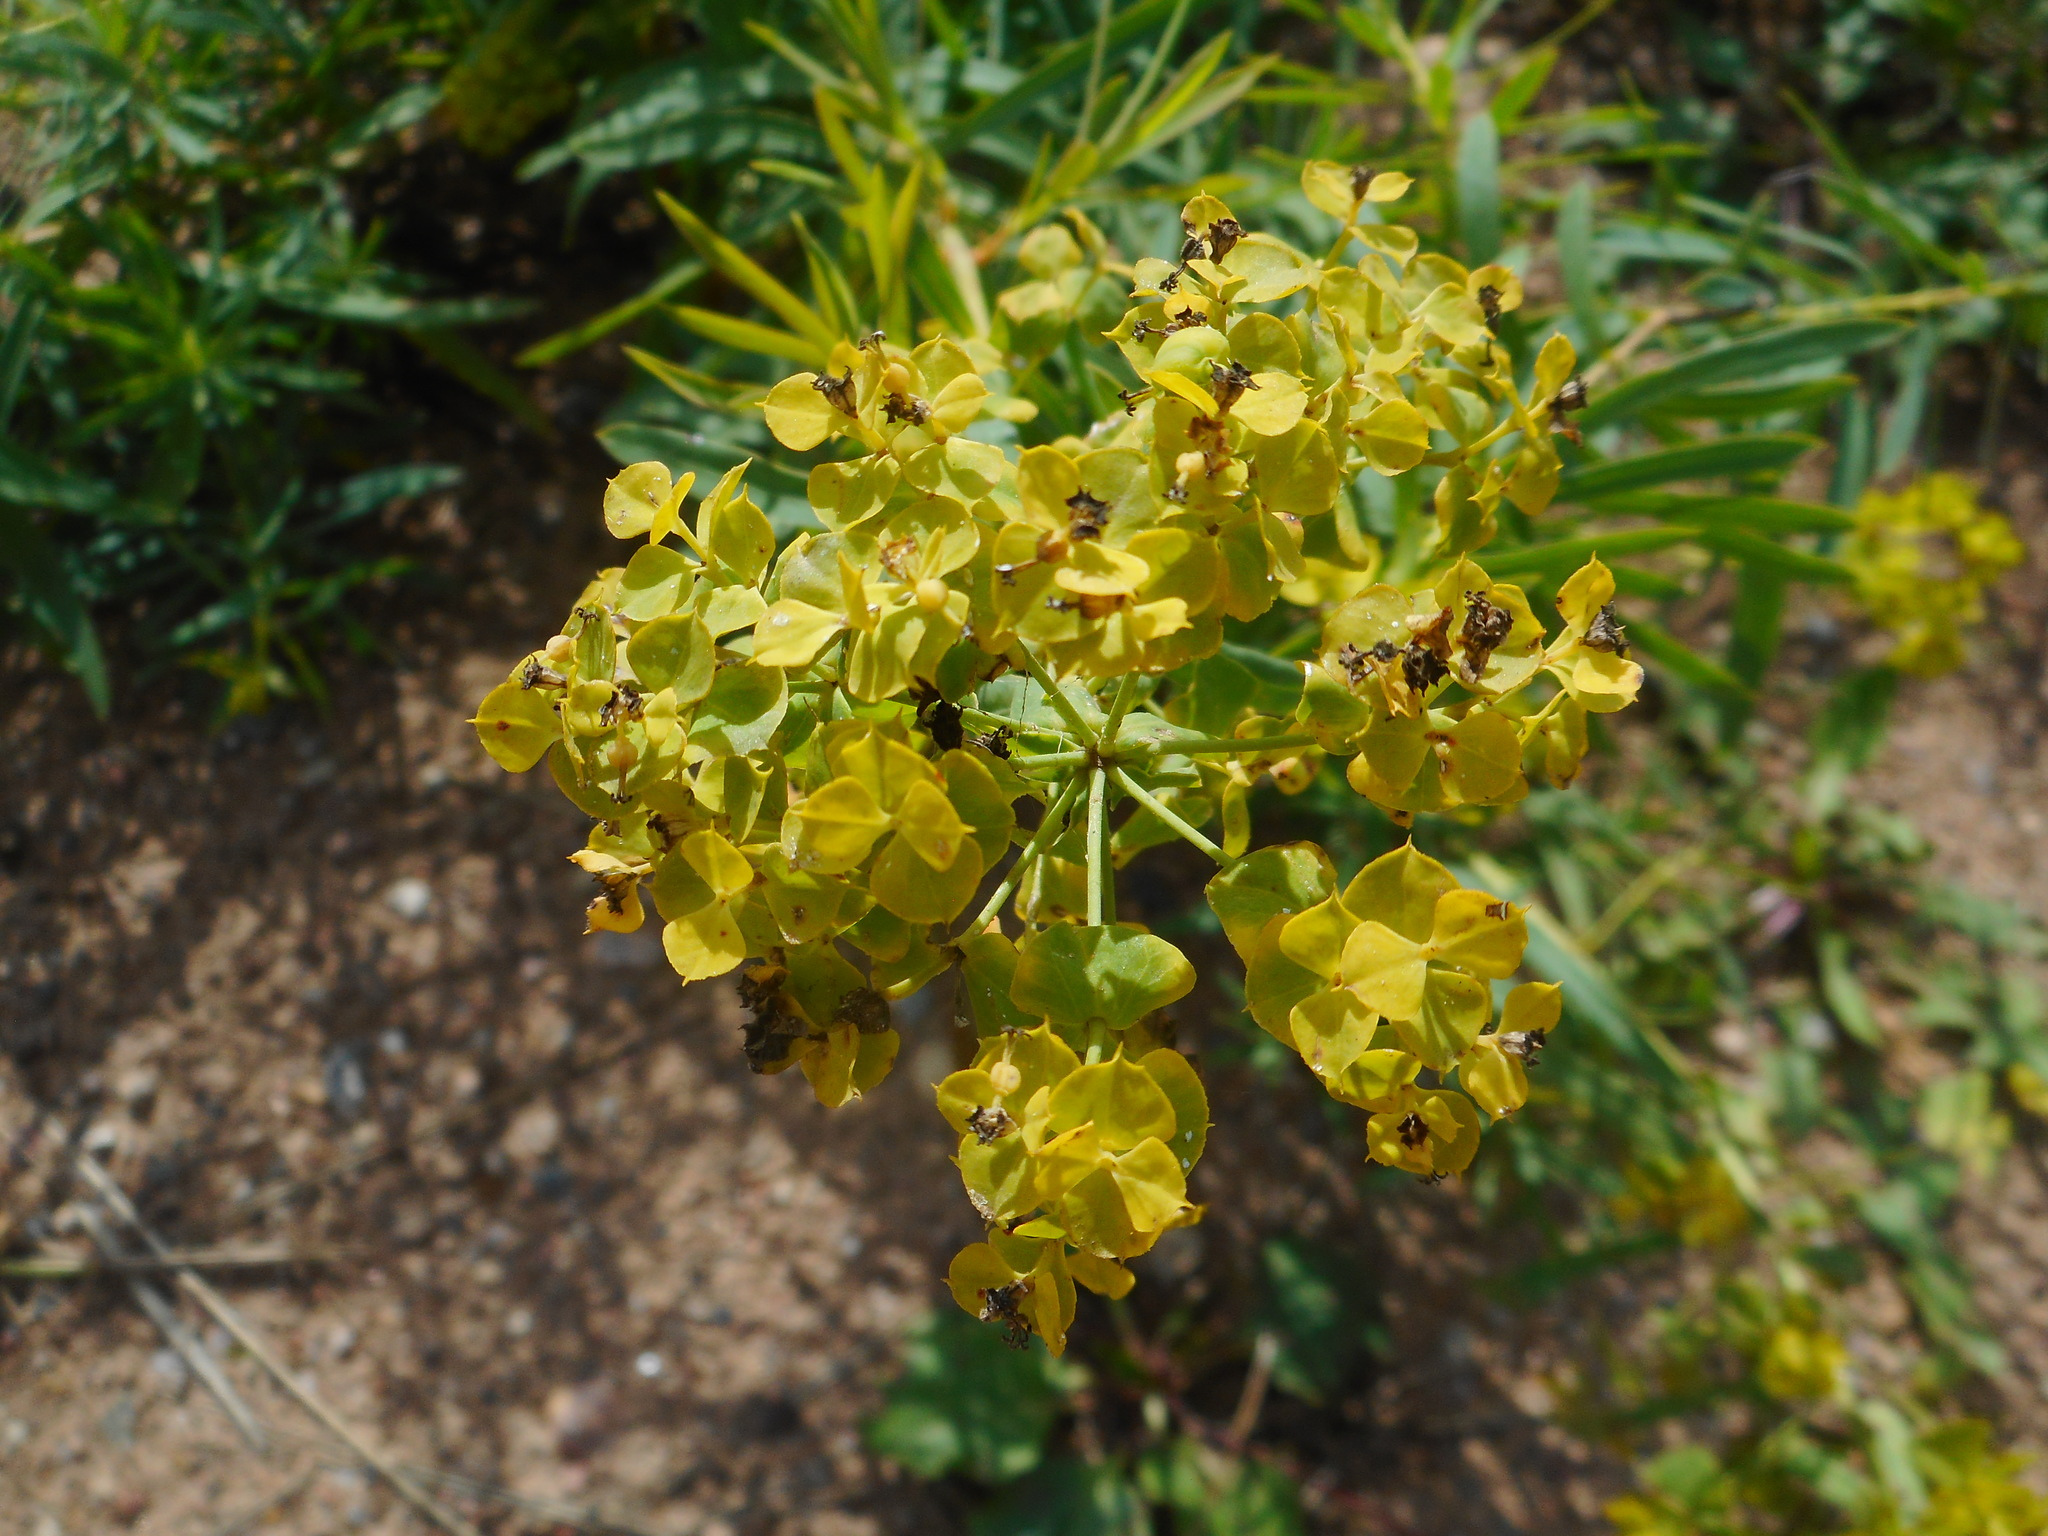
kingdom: Plantae
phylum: Tracheophyta
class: Magnoliopsida
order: Malpighiales
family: Euphorbiaceae
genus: Euphorbia
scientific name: Euphorbia virgata
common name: Leafy spurge
